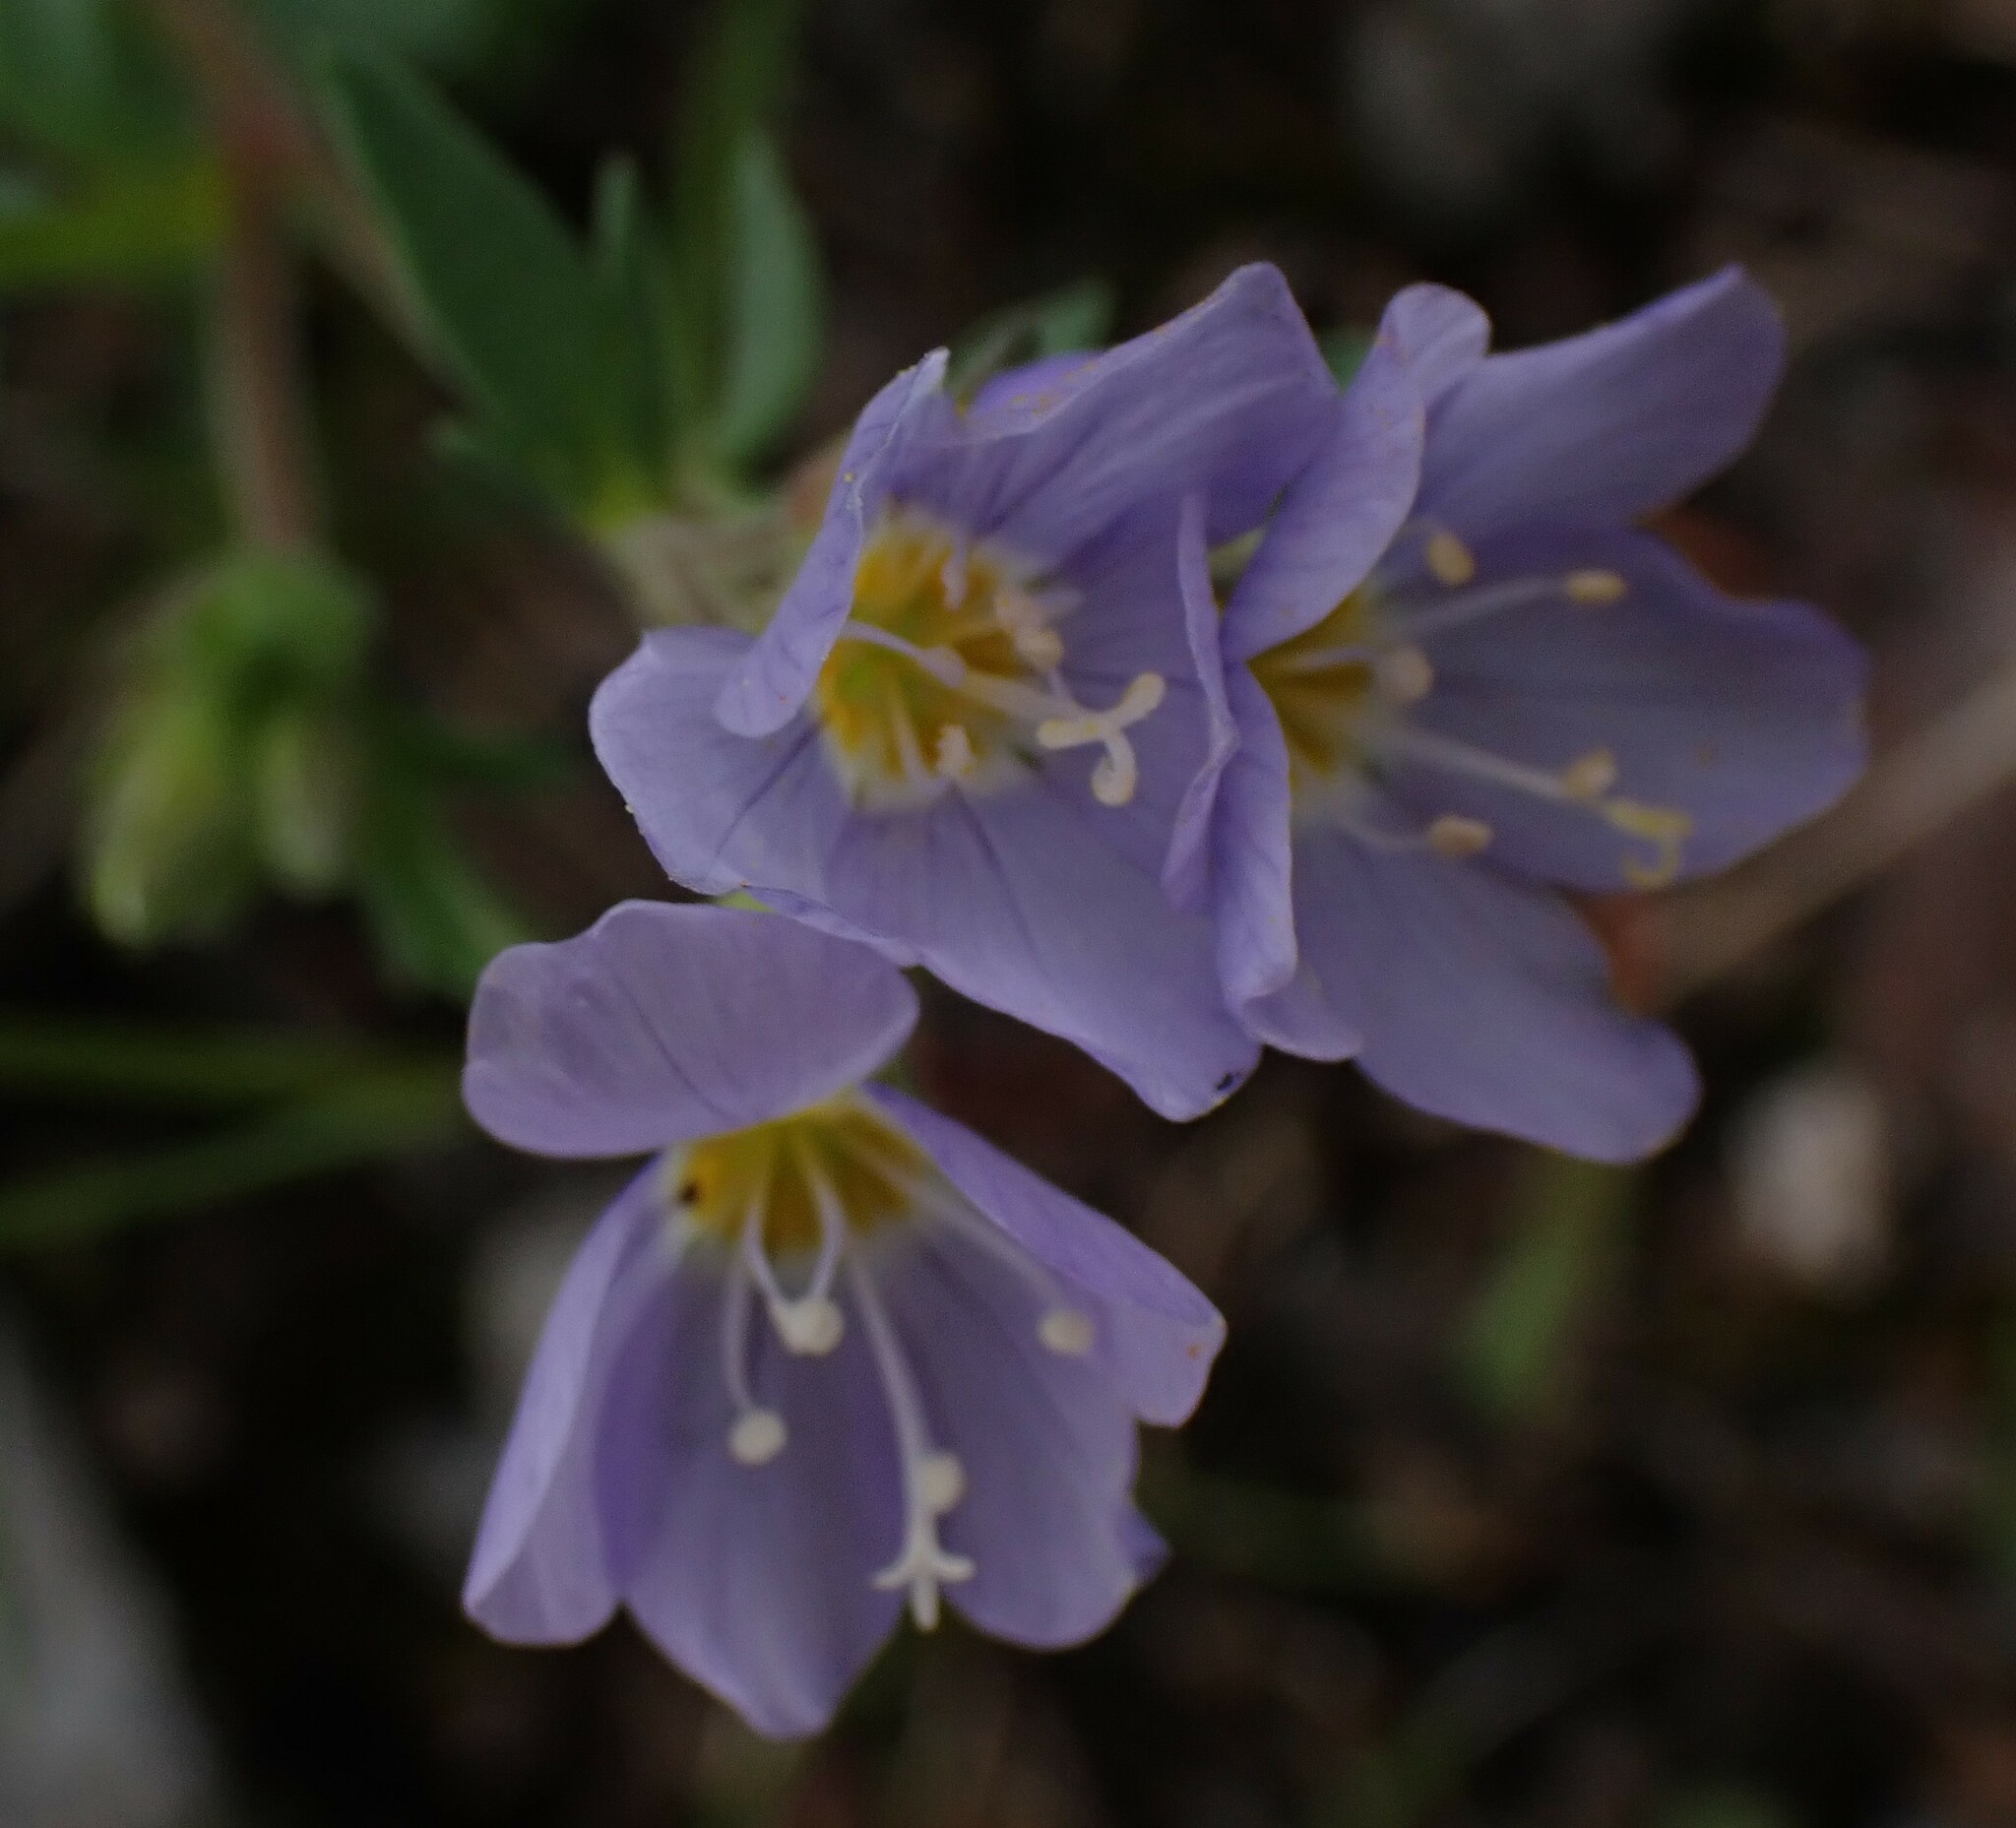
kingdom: Plantae
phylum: Tracheophyta
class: Magnoliopsida
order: Ericales
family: Polemoniaceae
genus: Polemonium
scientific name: Polemonium pulcherrimum
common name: Short jacob's-ladder
